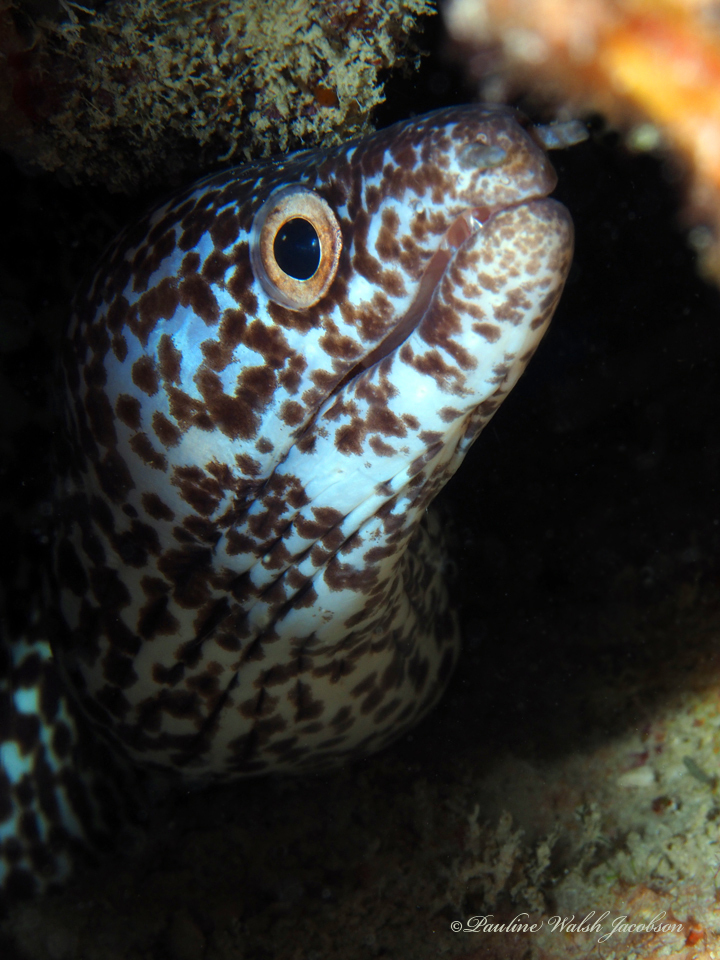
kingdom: Animalia
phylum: Chordata
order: Anguilliformes
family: Muraenidae
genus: Gymnothorax
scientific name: Gymnothorax moringa
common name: Spotted moray
